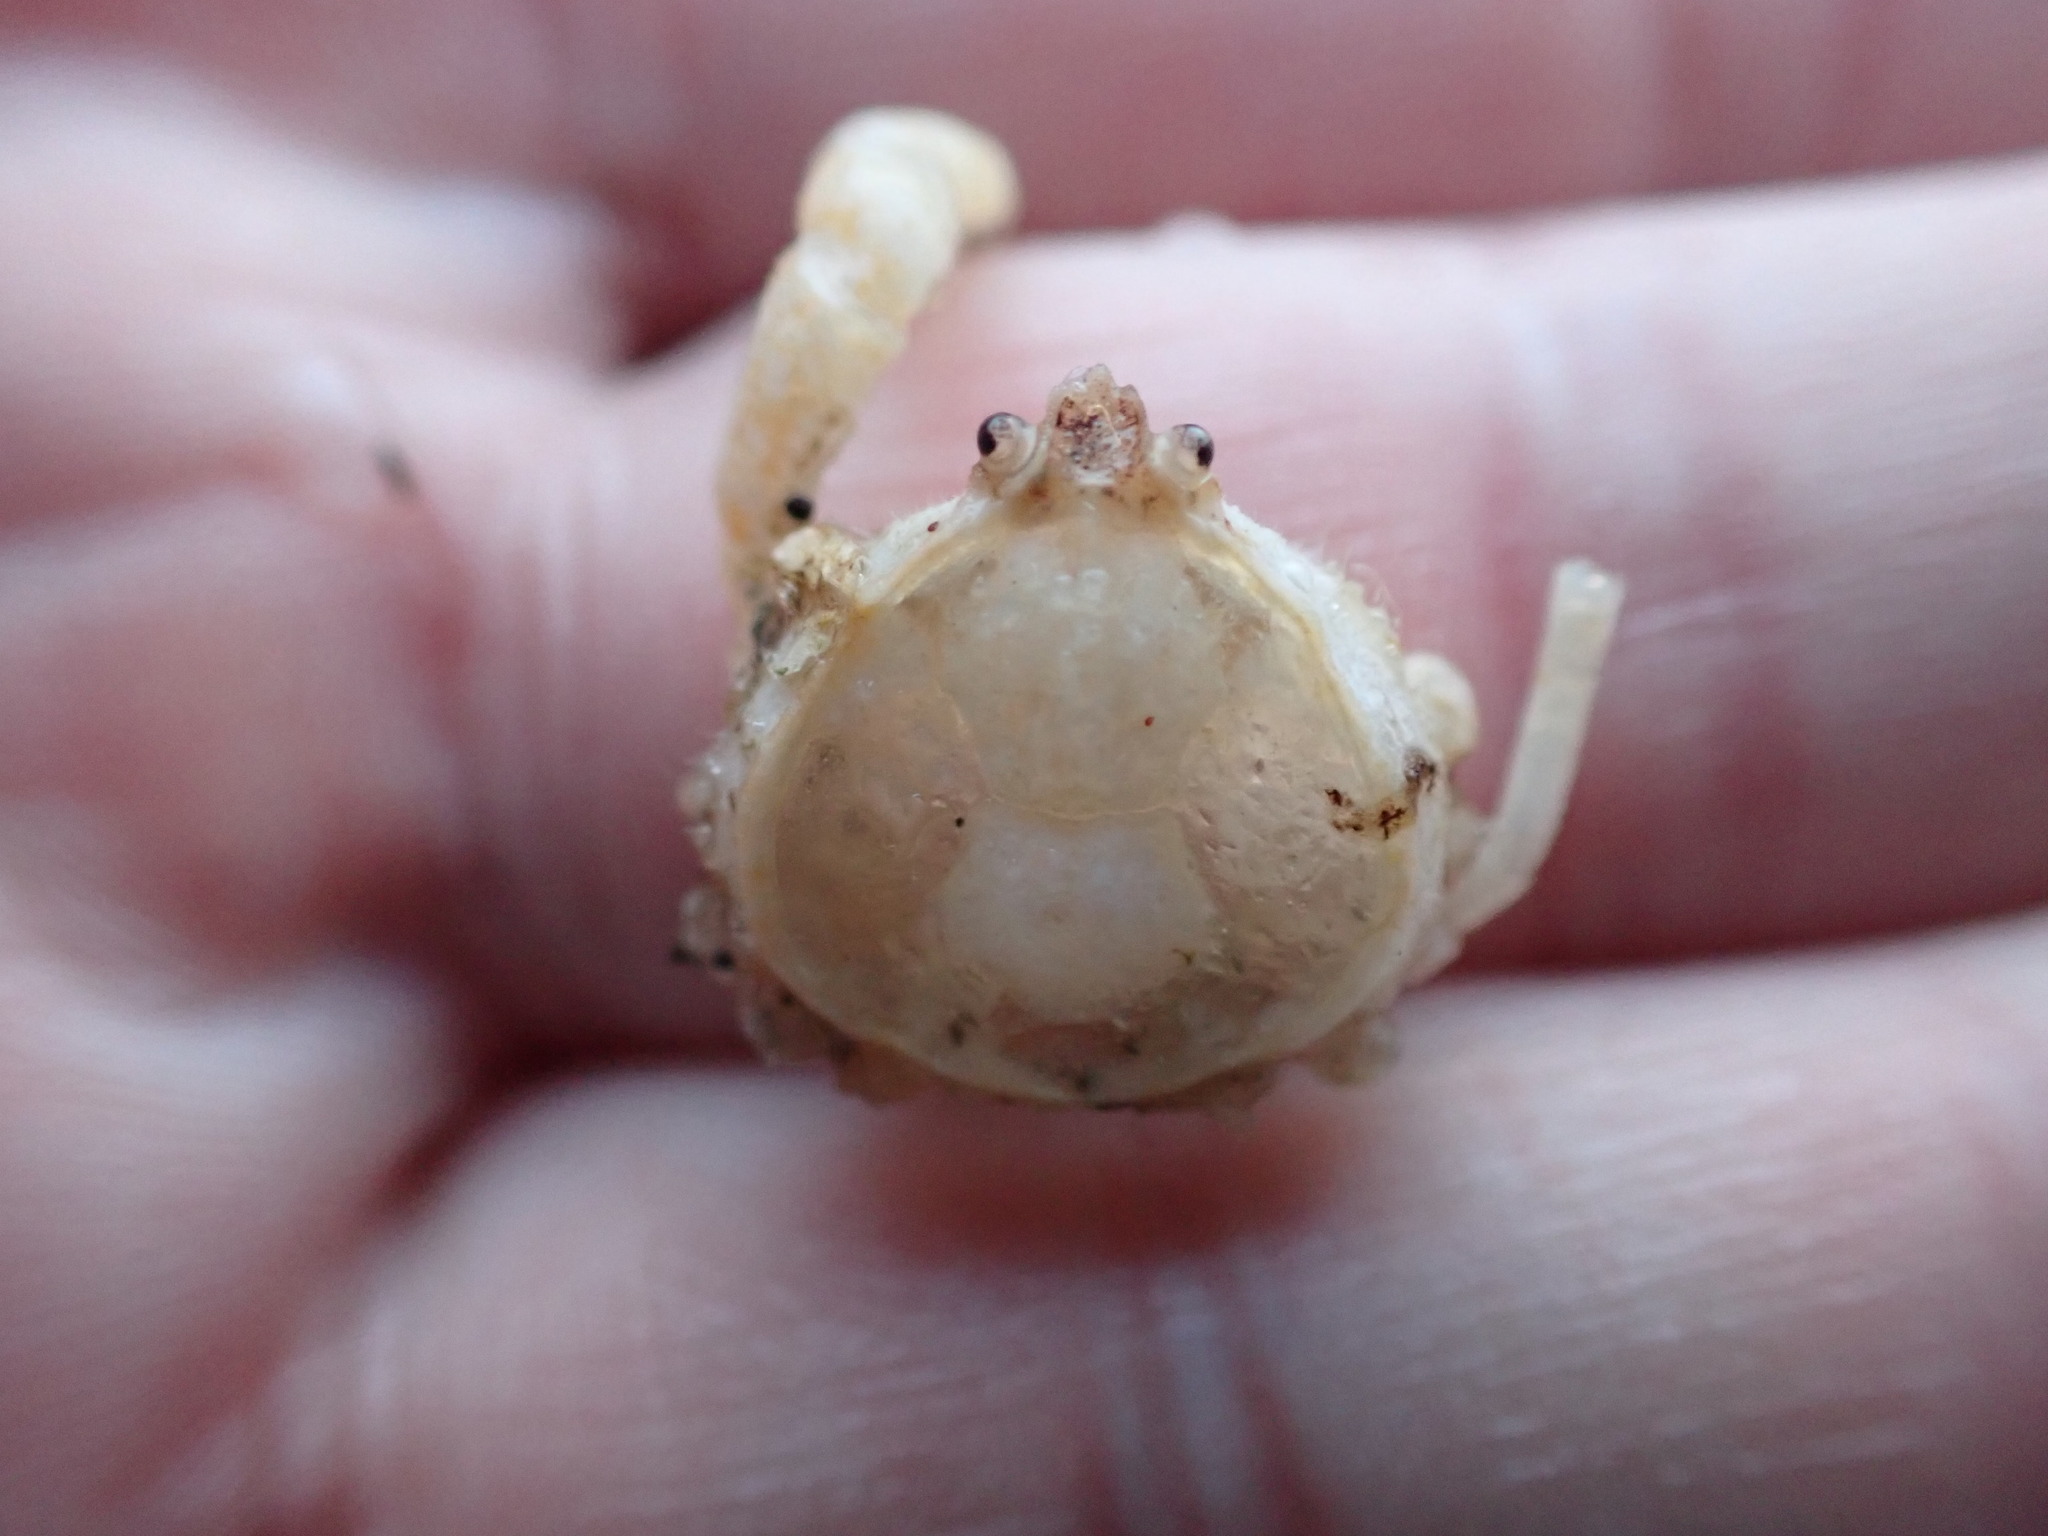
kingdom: Animalia
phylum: Arthropoda
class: Malacostraca
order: Decapoda
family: Hymenosomatidae
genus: Halicarcinus
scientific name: Halicarcinus whitei
